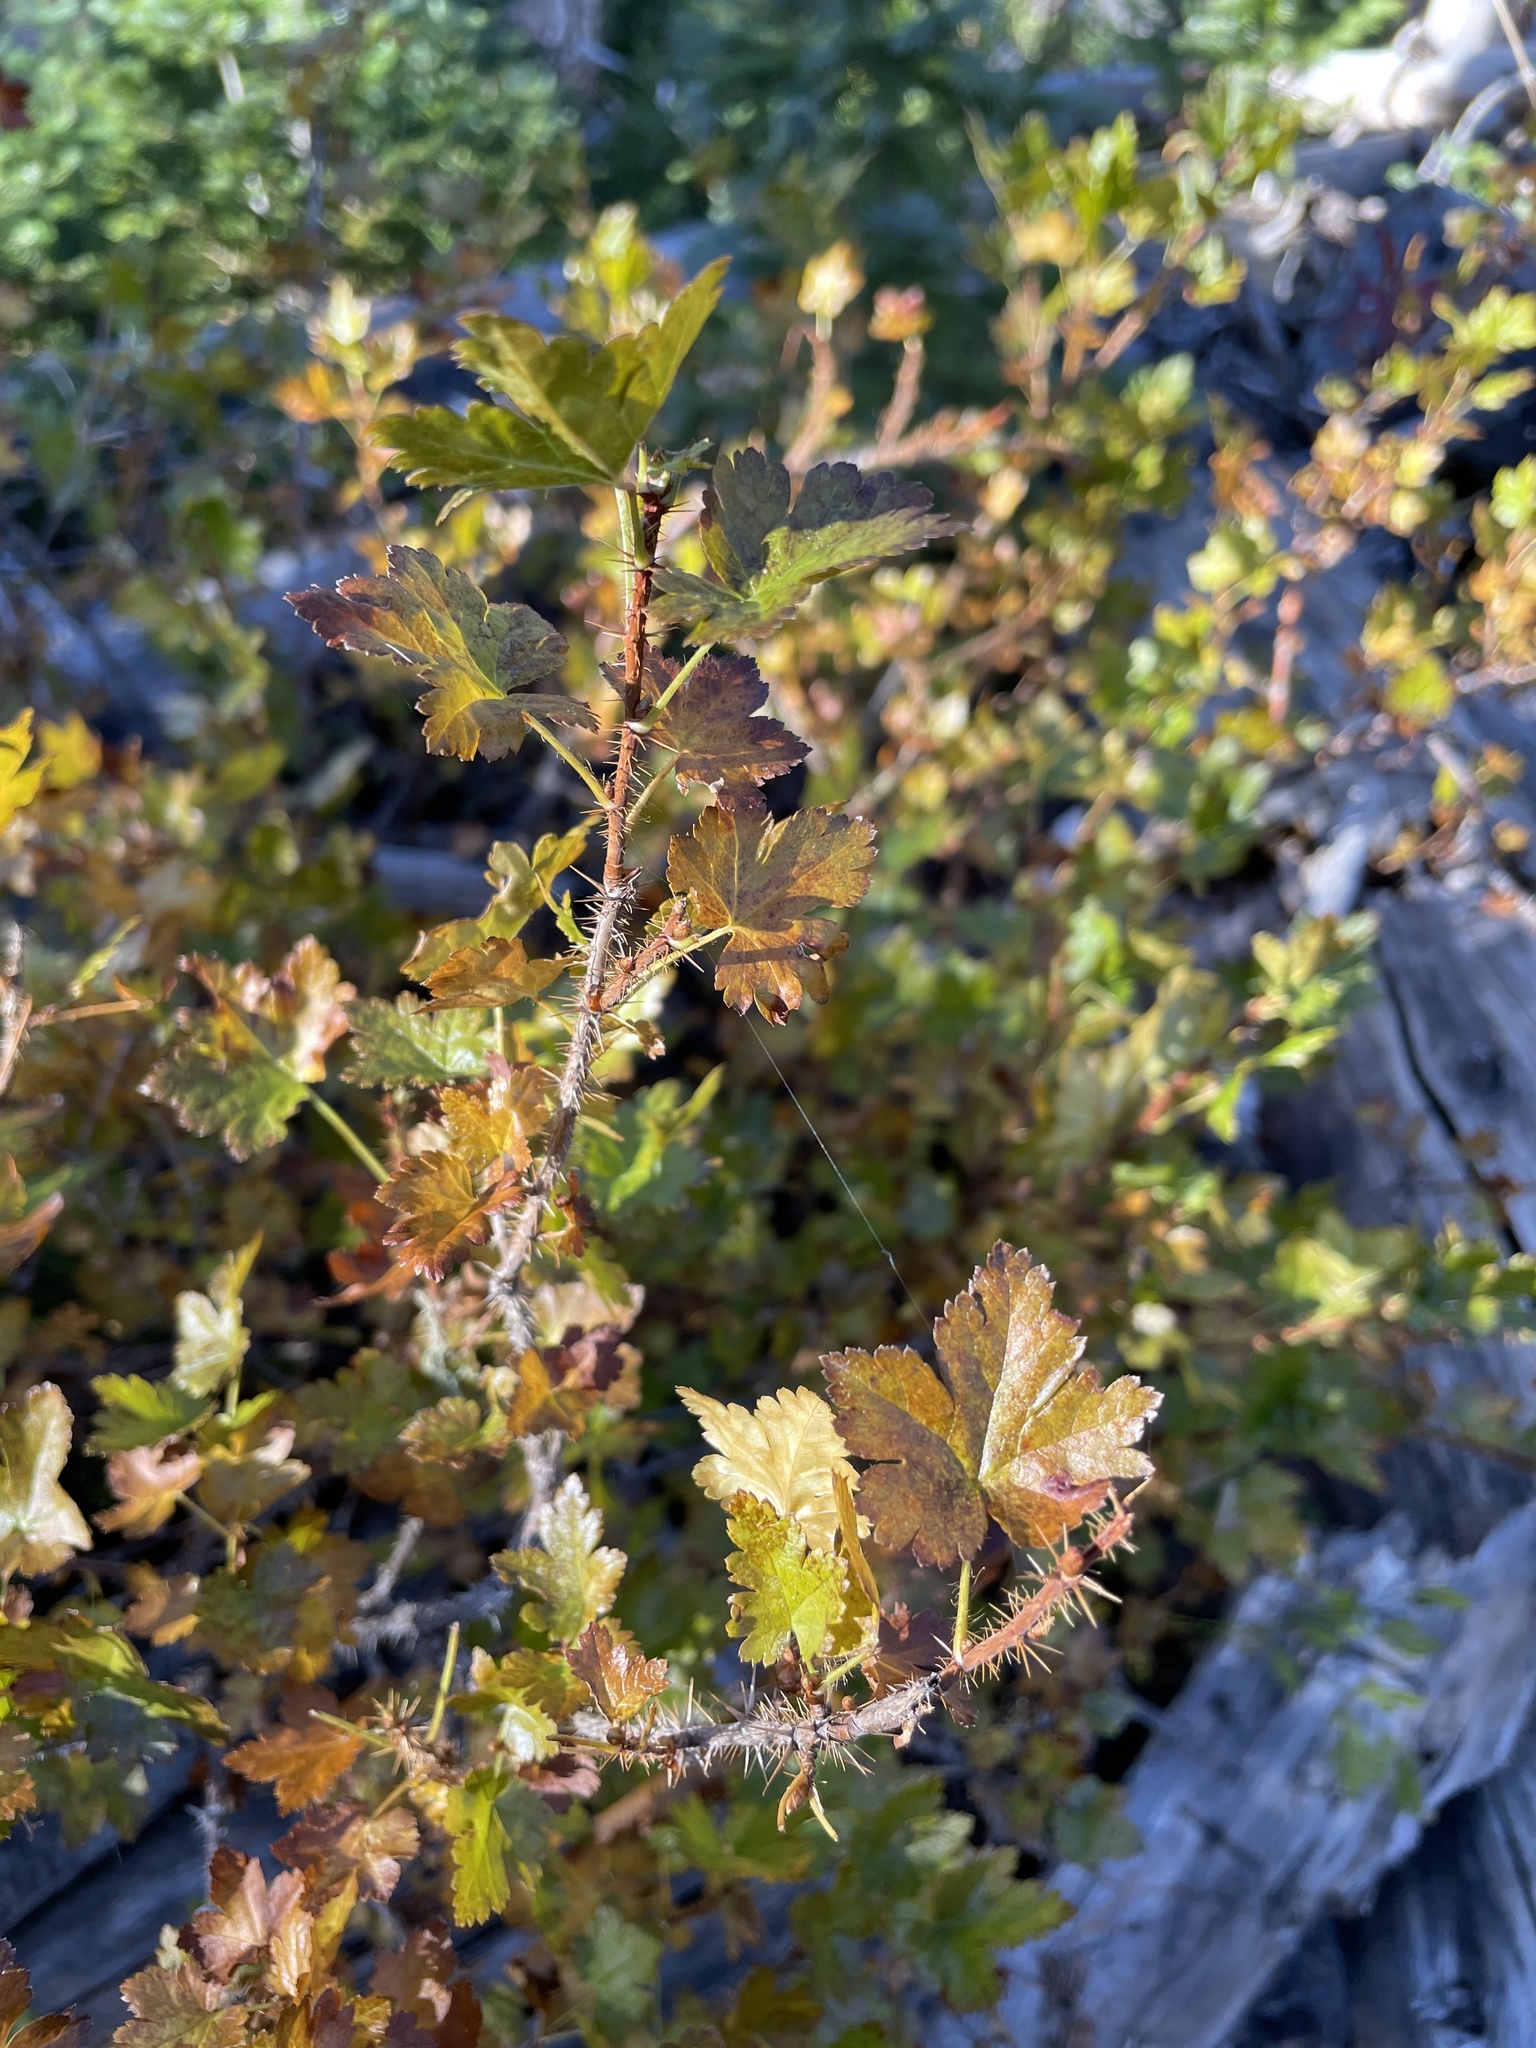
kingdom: Plantae
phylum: Tracheophyta
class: Magnoliopsida
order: Saxifragales
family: Grossulariaceae
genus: Ribes
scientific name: Ribes lacustre
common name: Black gooseberry
